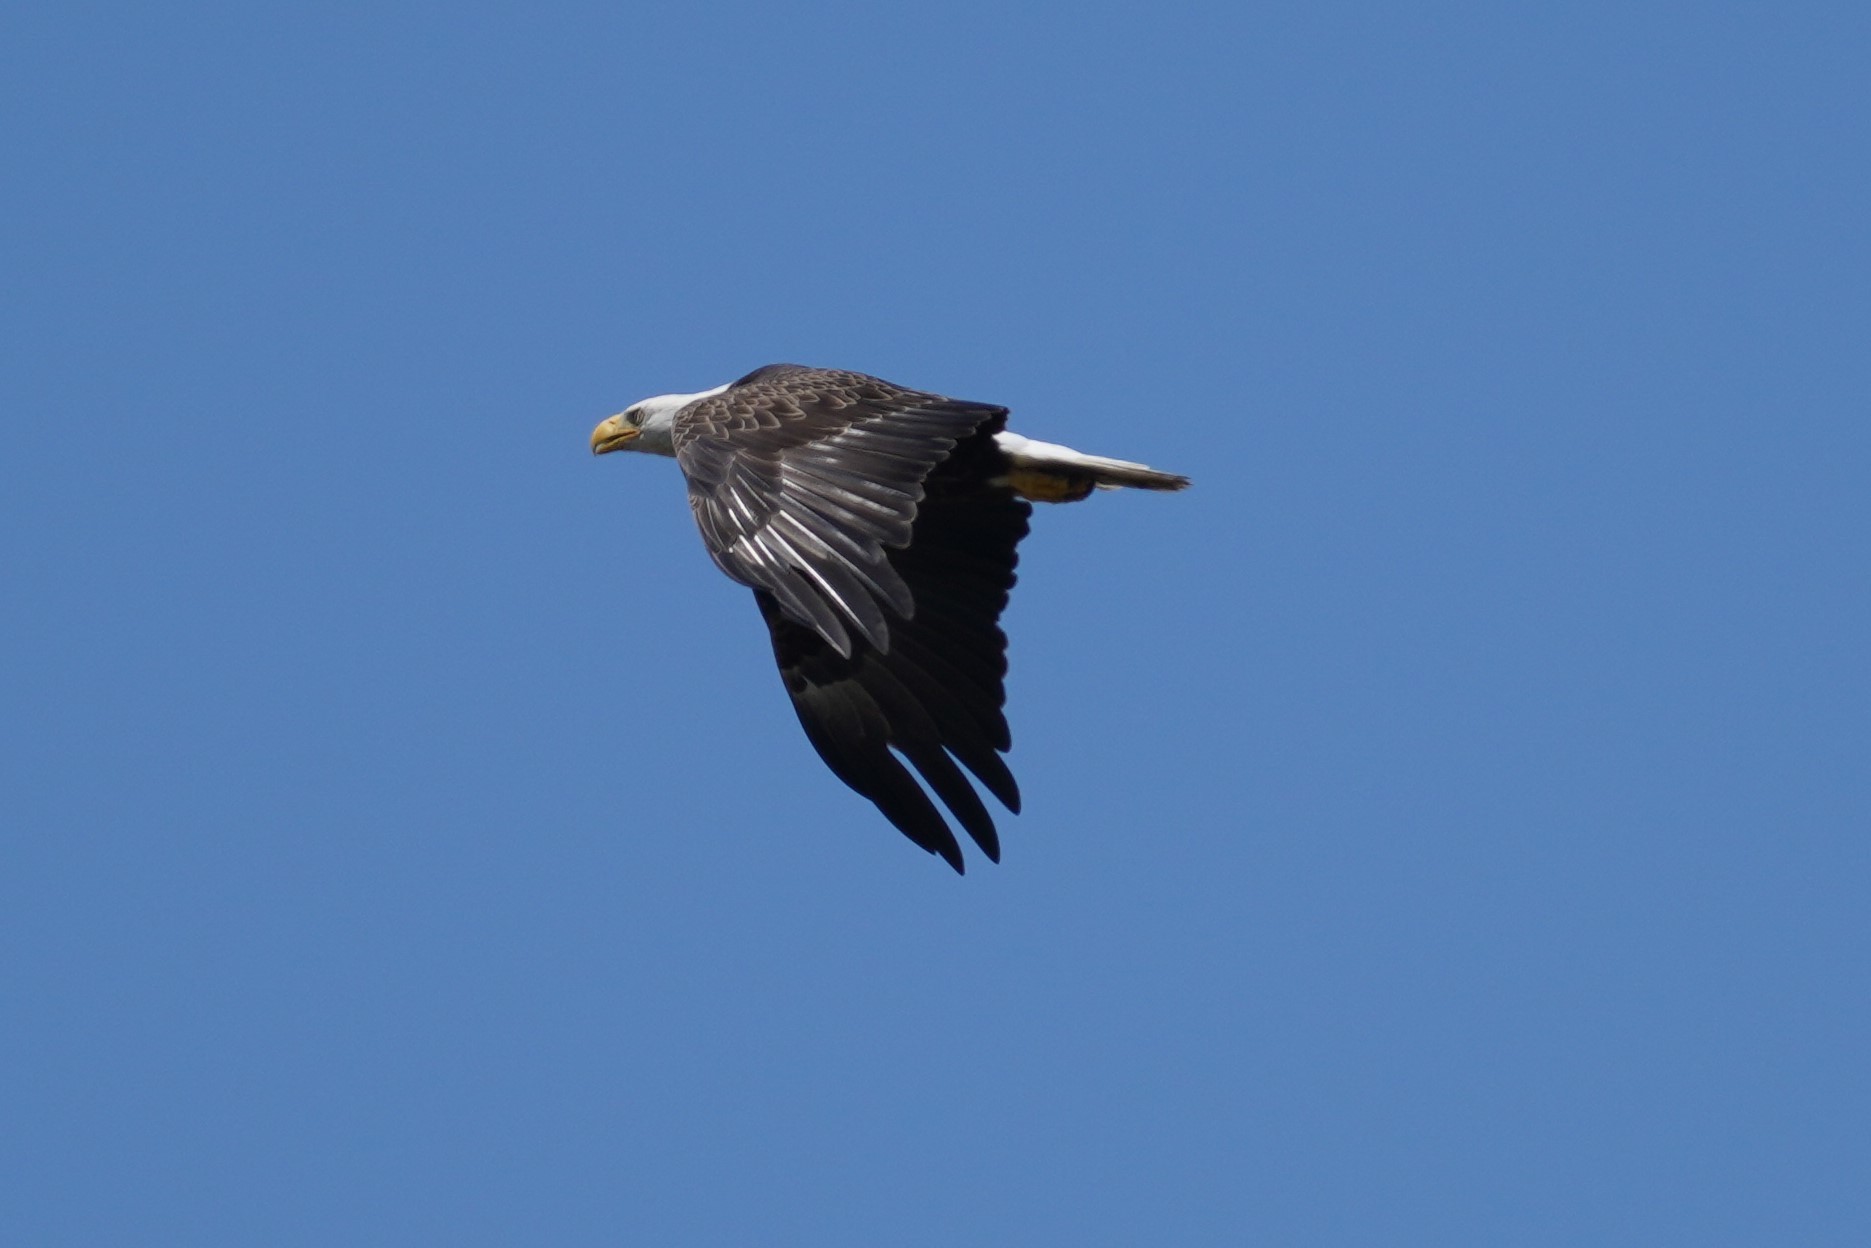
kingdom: Animalia
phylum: Chordata
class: Aves
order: Accipitriformes
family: Accipitridae
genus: Haliaeetus
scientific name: Haliaeetus leucocephalus
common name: Bald eagle
